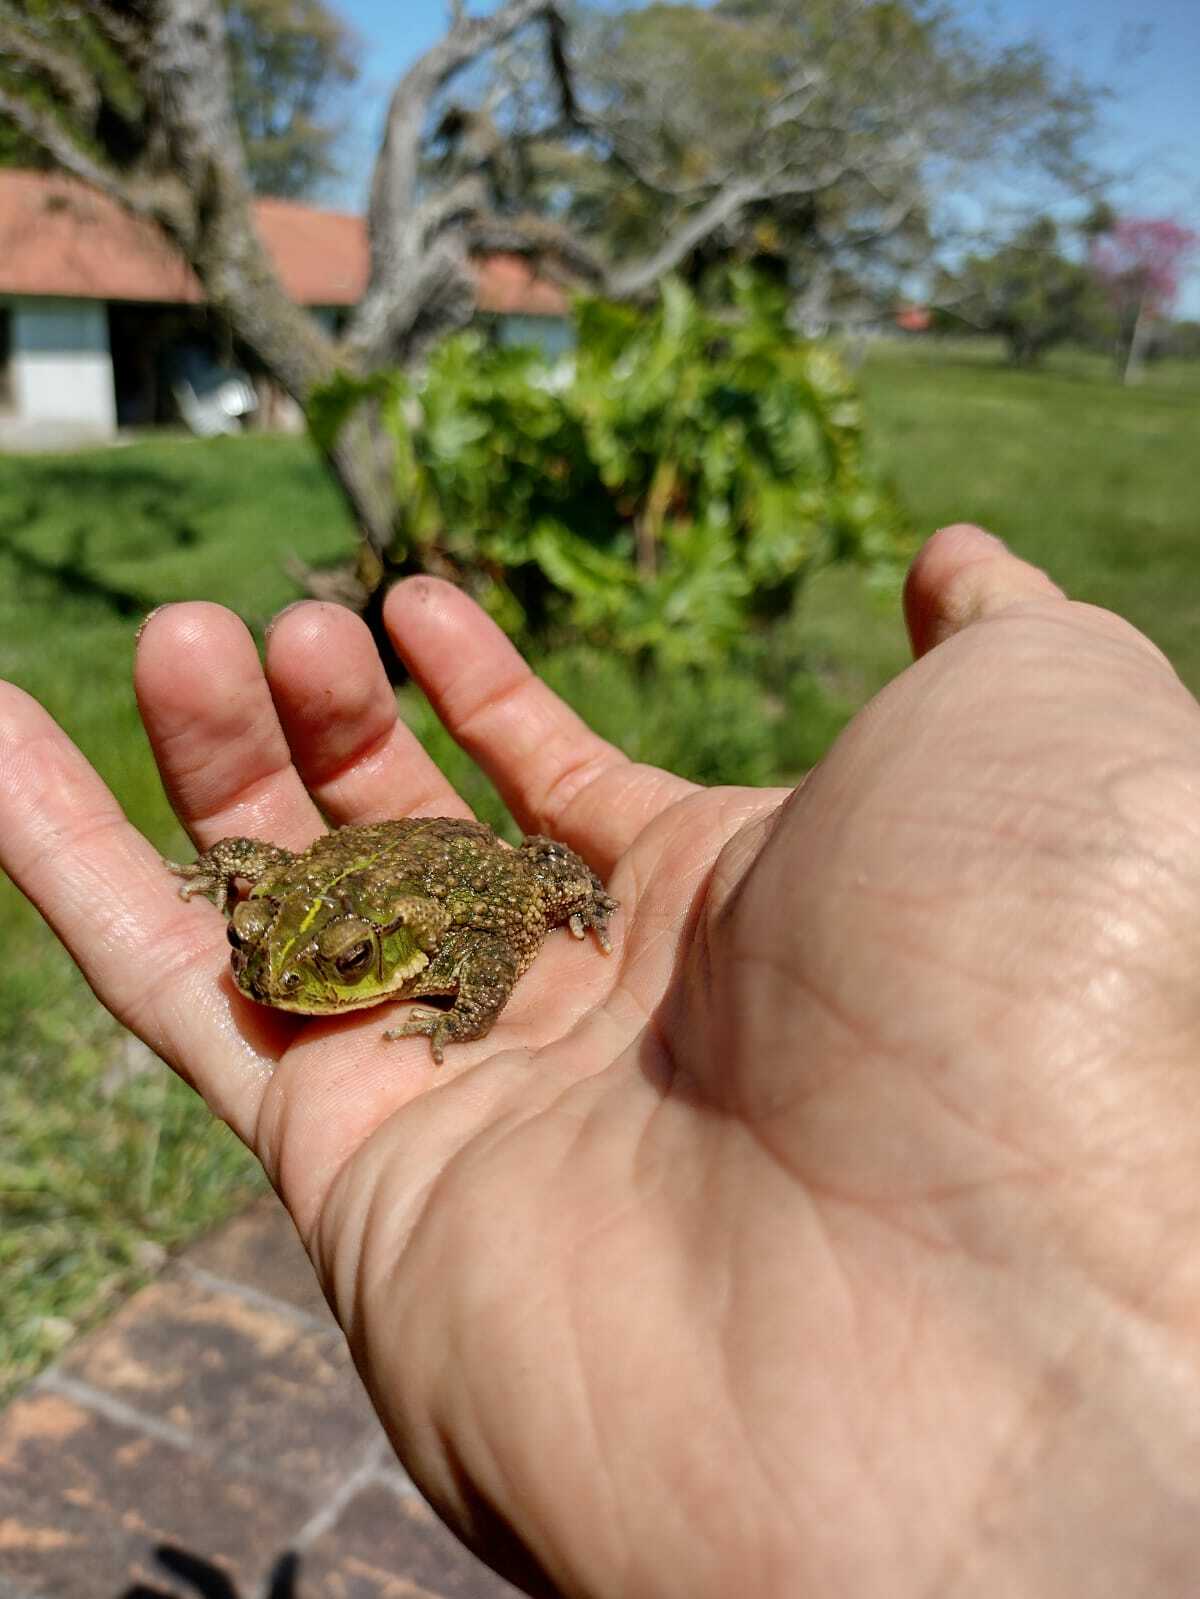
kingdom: Animalia
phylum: Chordata
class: Amphibia
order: Anura
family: Bufonidae
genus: Rhinella
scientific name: Rhinella dorbignyi
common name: D´orbigny’s toad
